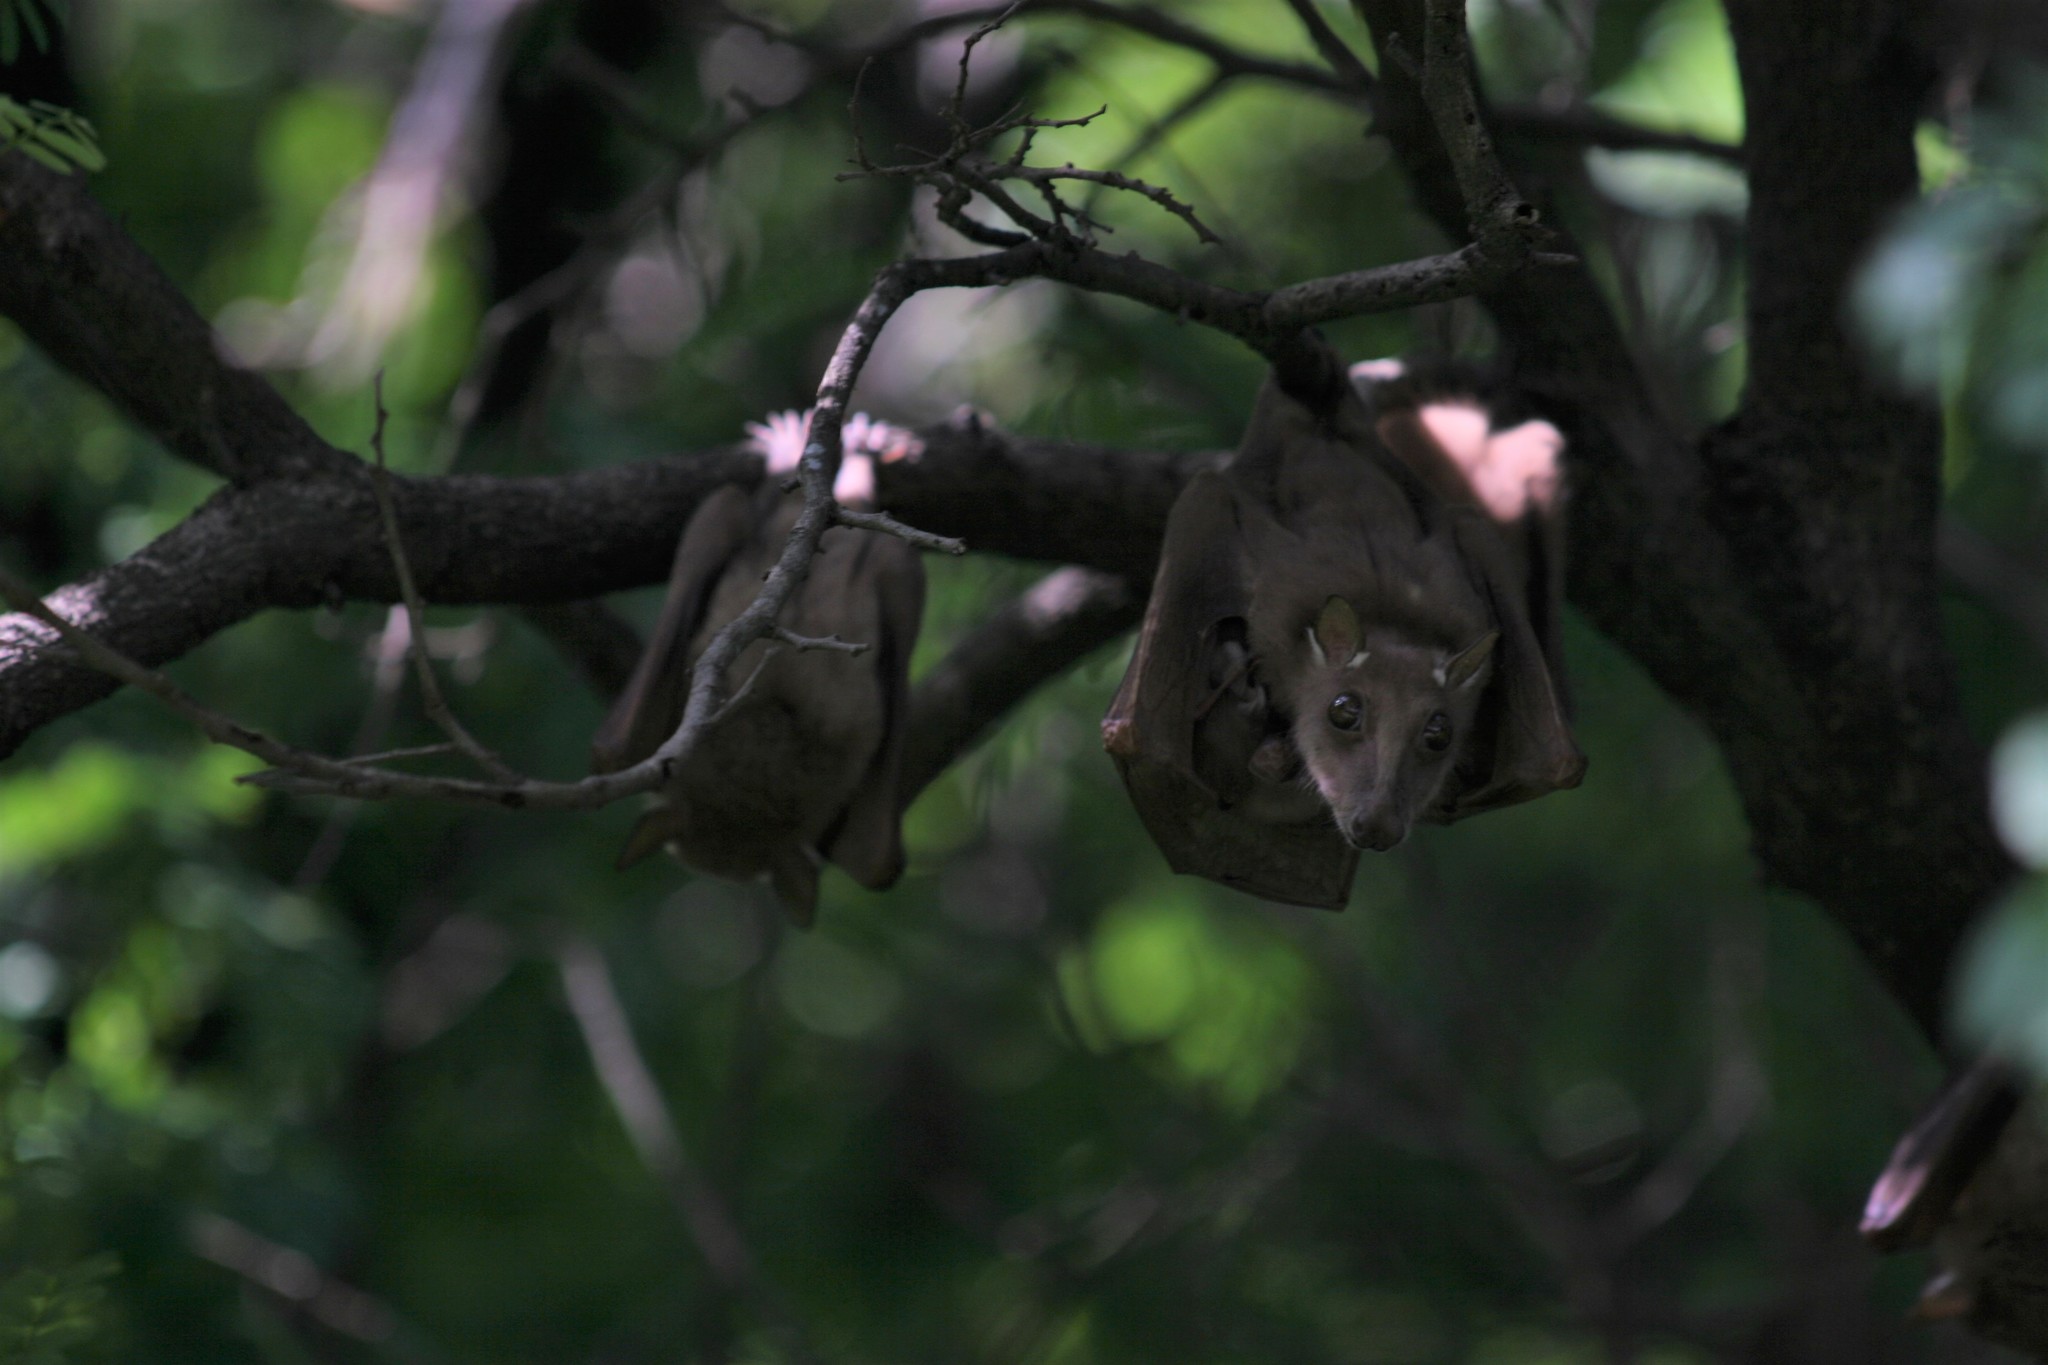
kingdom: Animalia
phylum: Chordata
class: Mammalia
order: Chiroptera
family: Pteropodidae
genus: Epomophorus
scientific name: Epomophorus gambianus
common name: Gambian epauletted fruit bat
